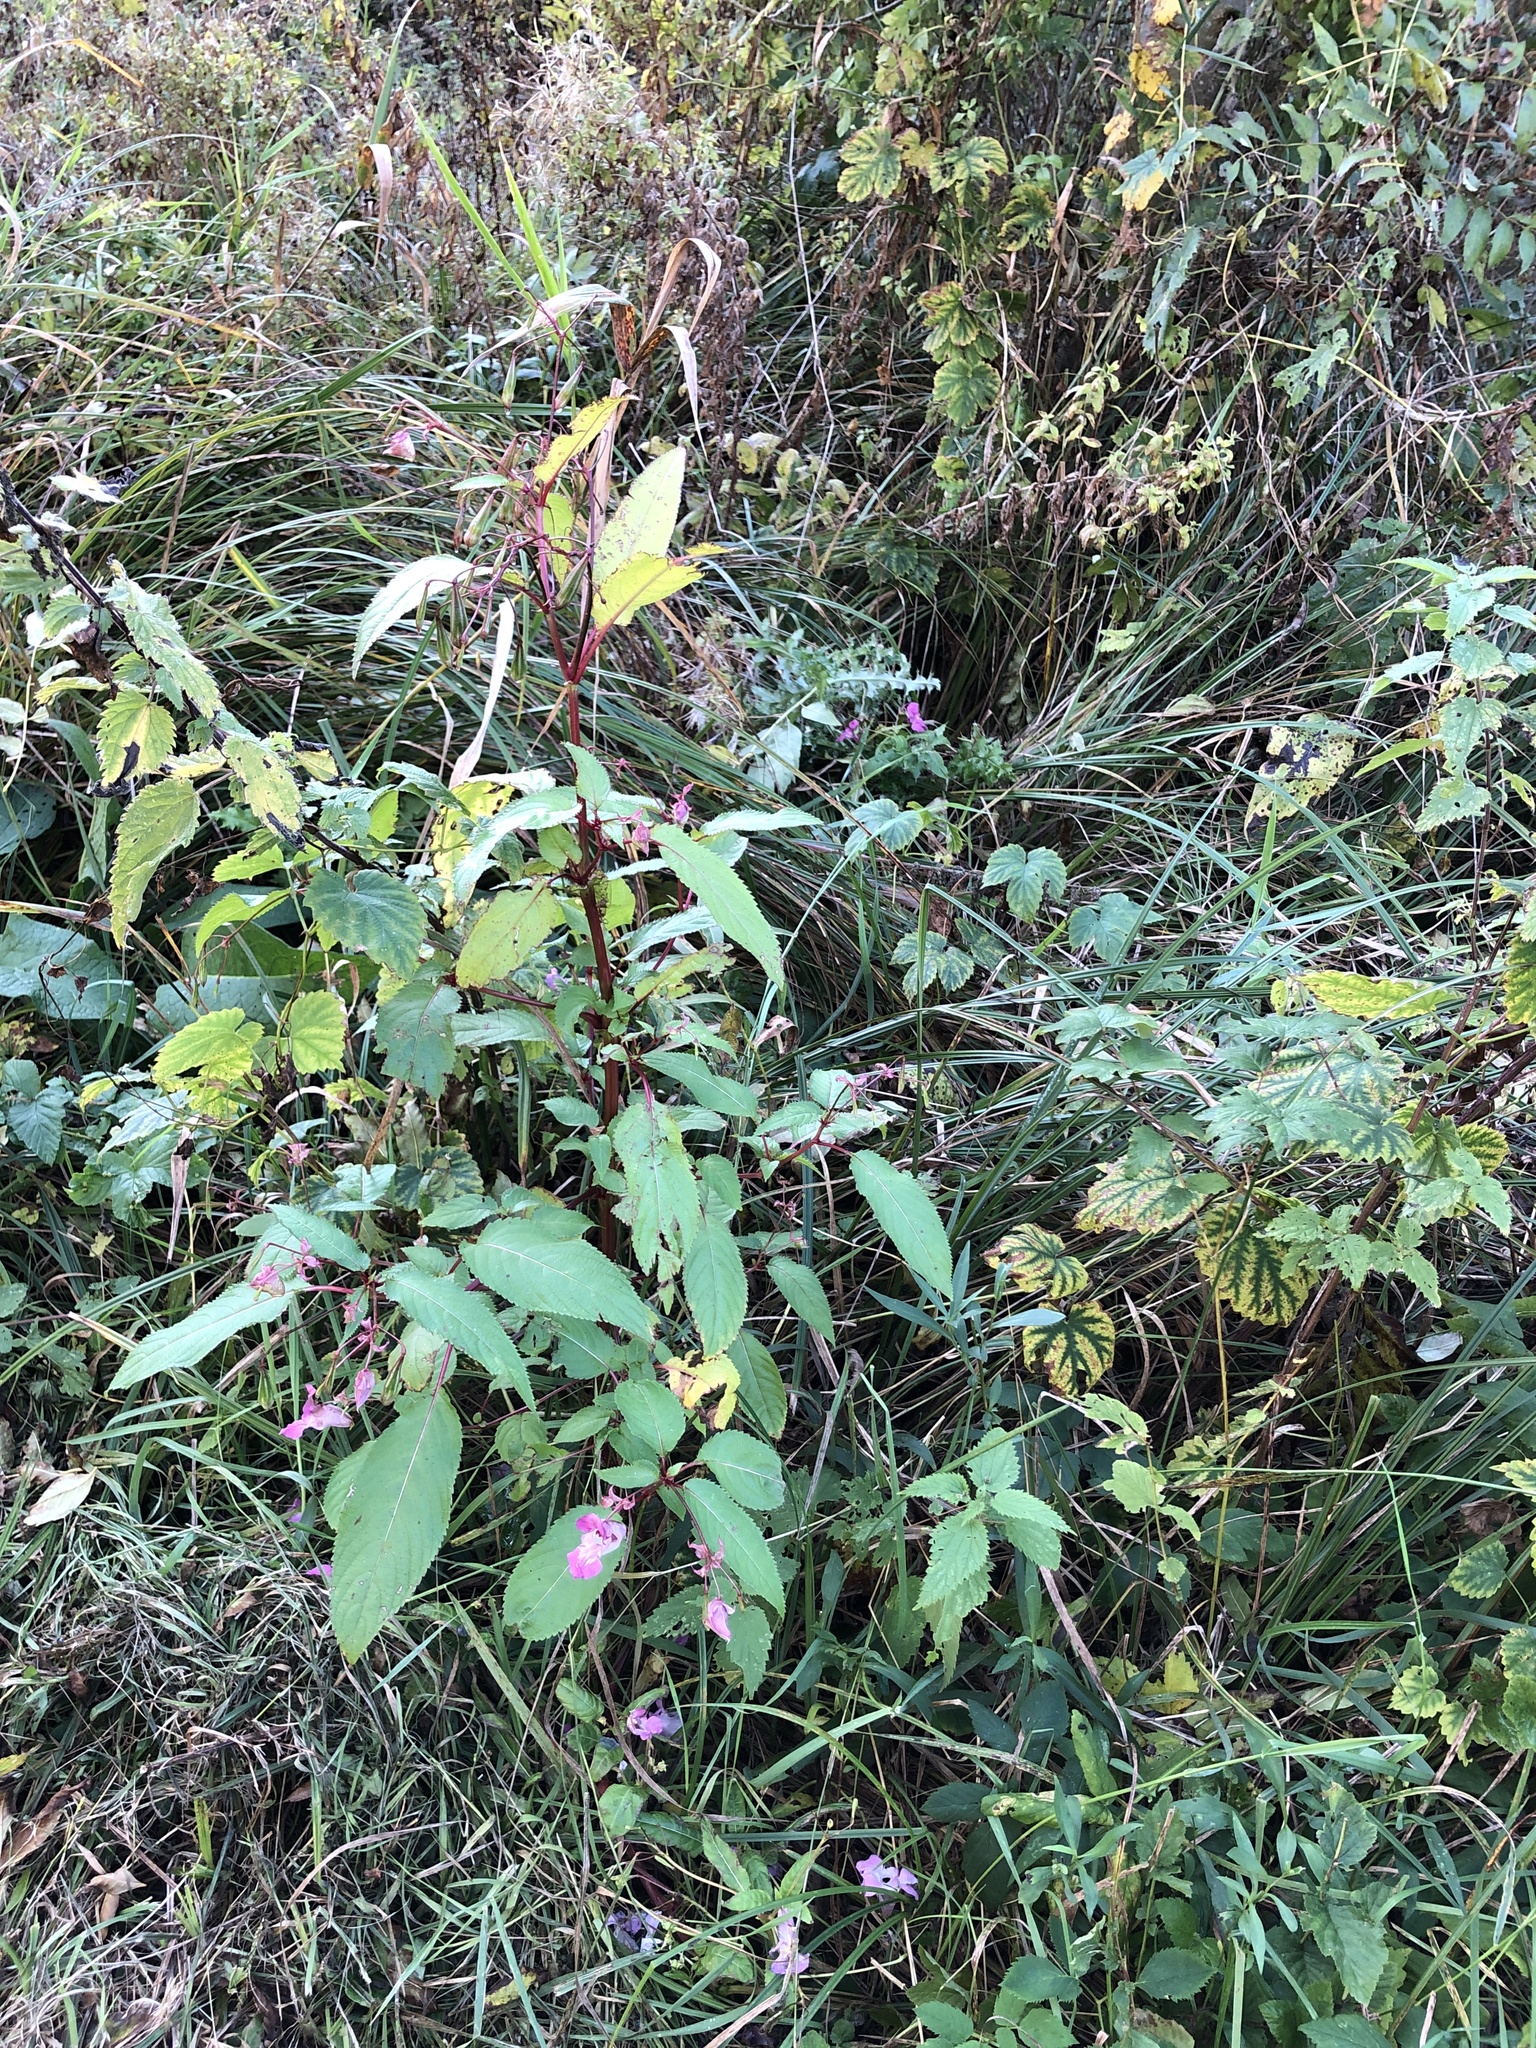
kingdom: Plantae
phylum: Tracheophyta
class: Magnoliopsida
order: Ericales
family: Balsaminaceae
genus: Impatiens
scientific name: Impatiens glandulifera
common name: Himalayan balsam
